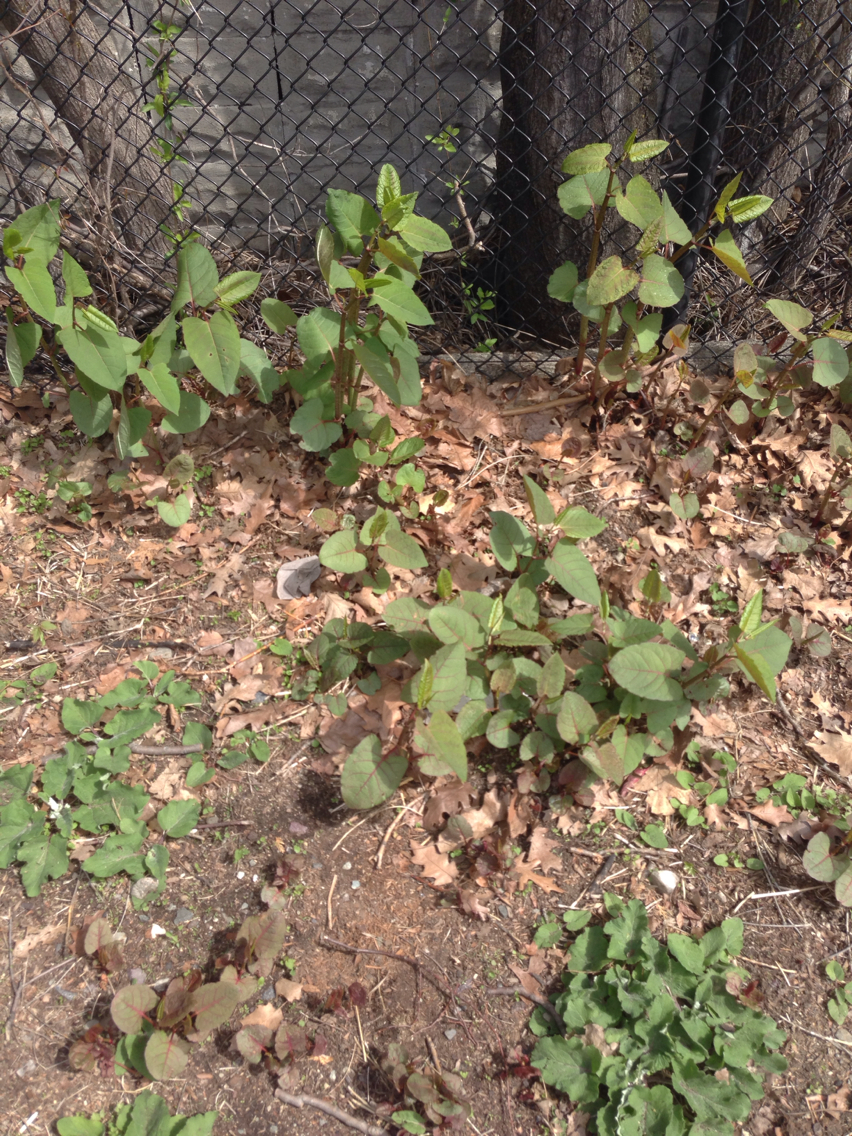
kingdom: Plantae
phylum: Tracheophyta
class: Magnoliopsida
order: Caryophyllales
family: Polygonaceae
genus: Reynoutria
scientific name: Reynoutria japonica
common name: Japanese knotweed
